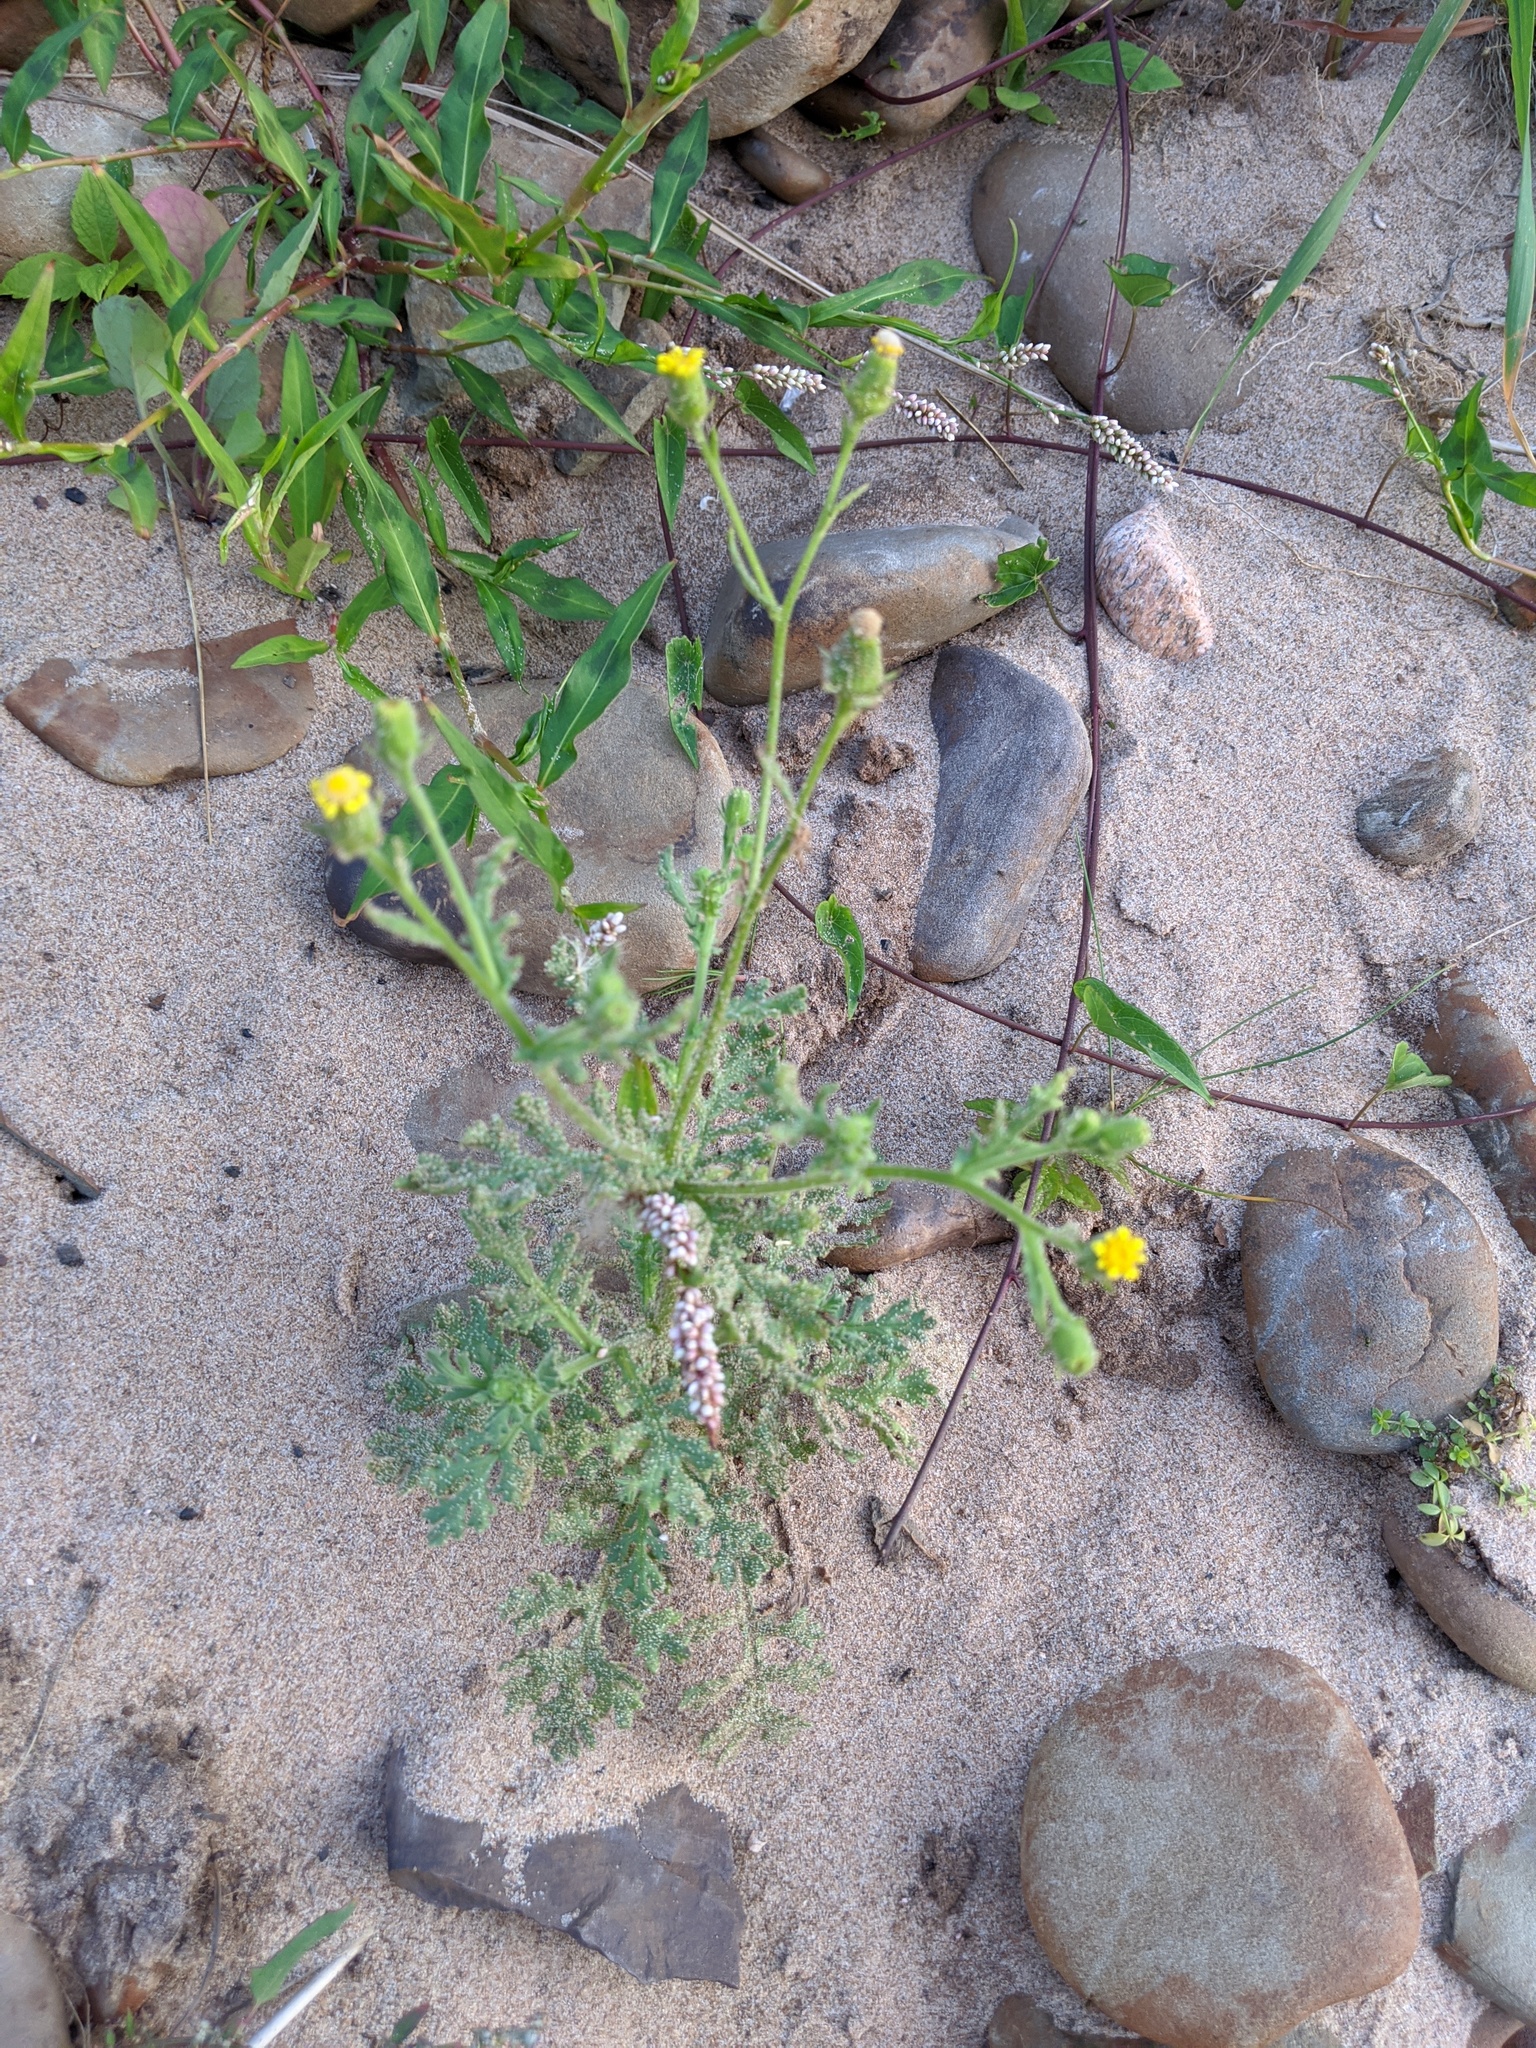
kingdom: Plantae
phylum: Tracheophyta
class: Magnoliopsida
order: Asterales
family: Asteraceae
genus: Senecio
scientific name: Senecio viscosus
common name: Sticky groundsel
